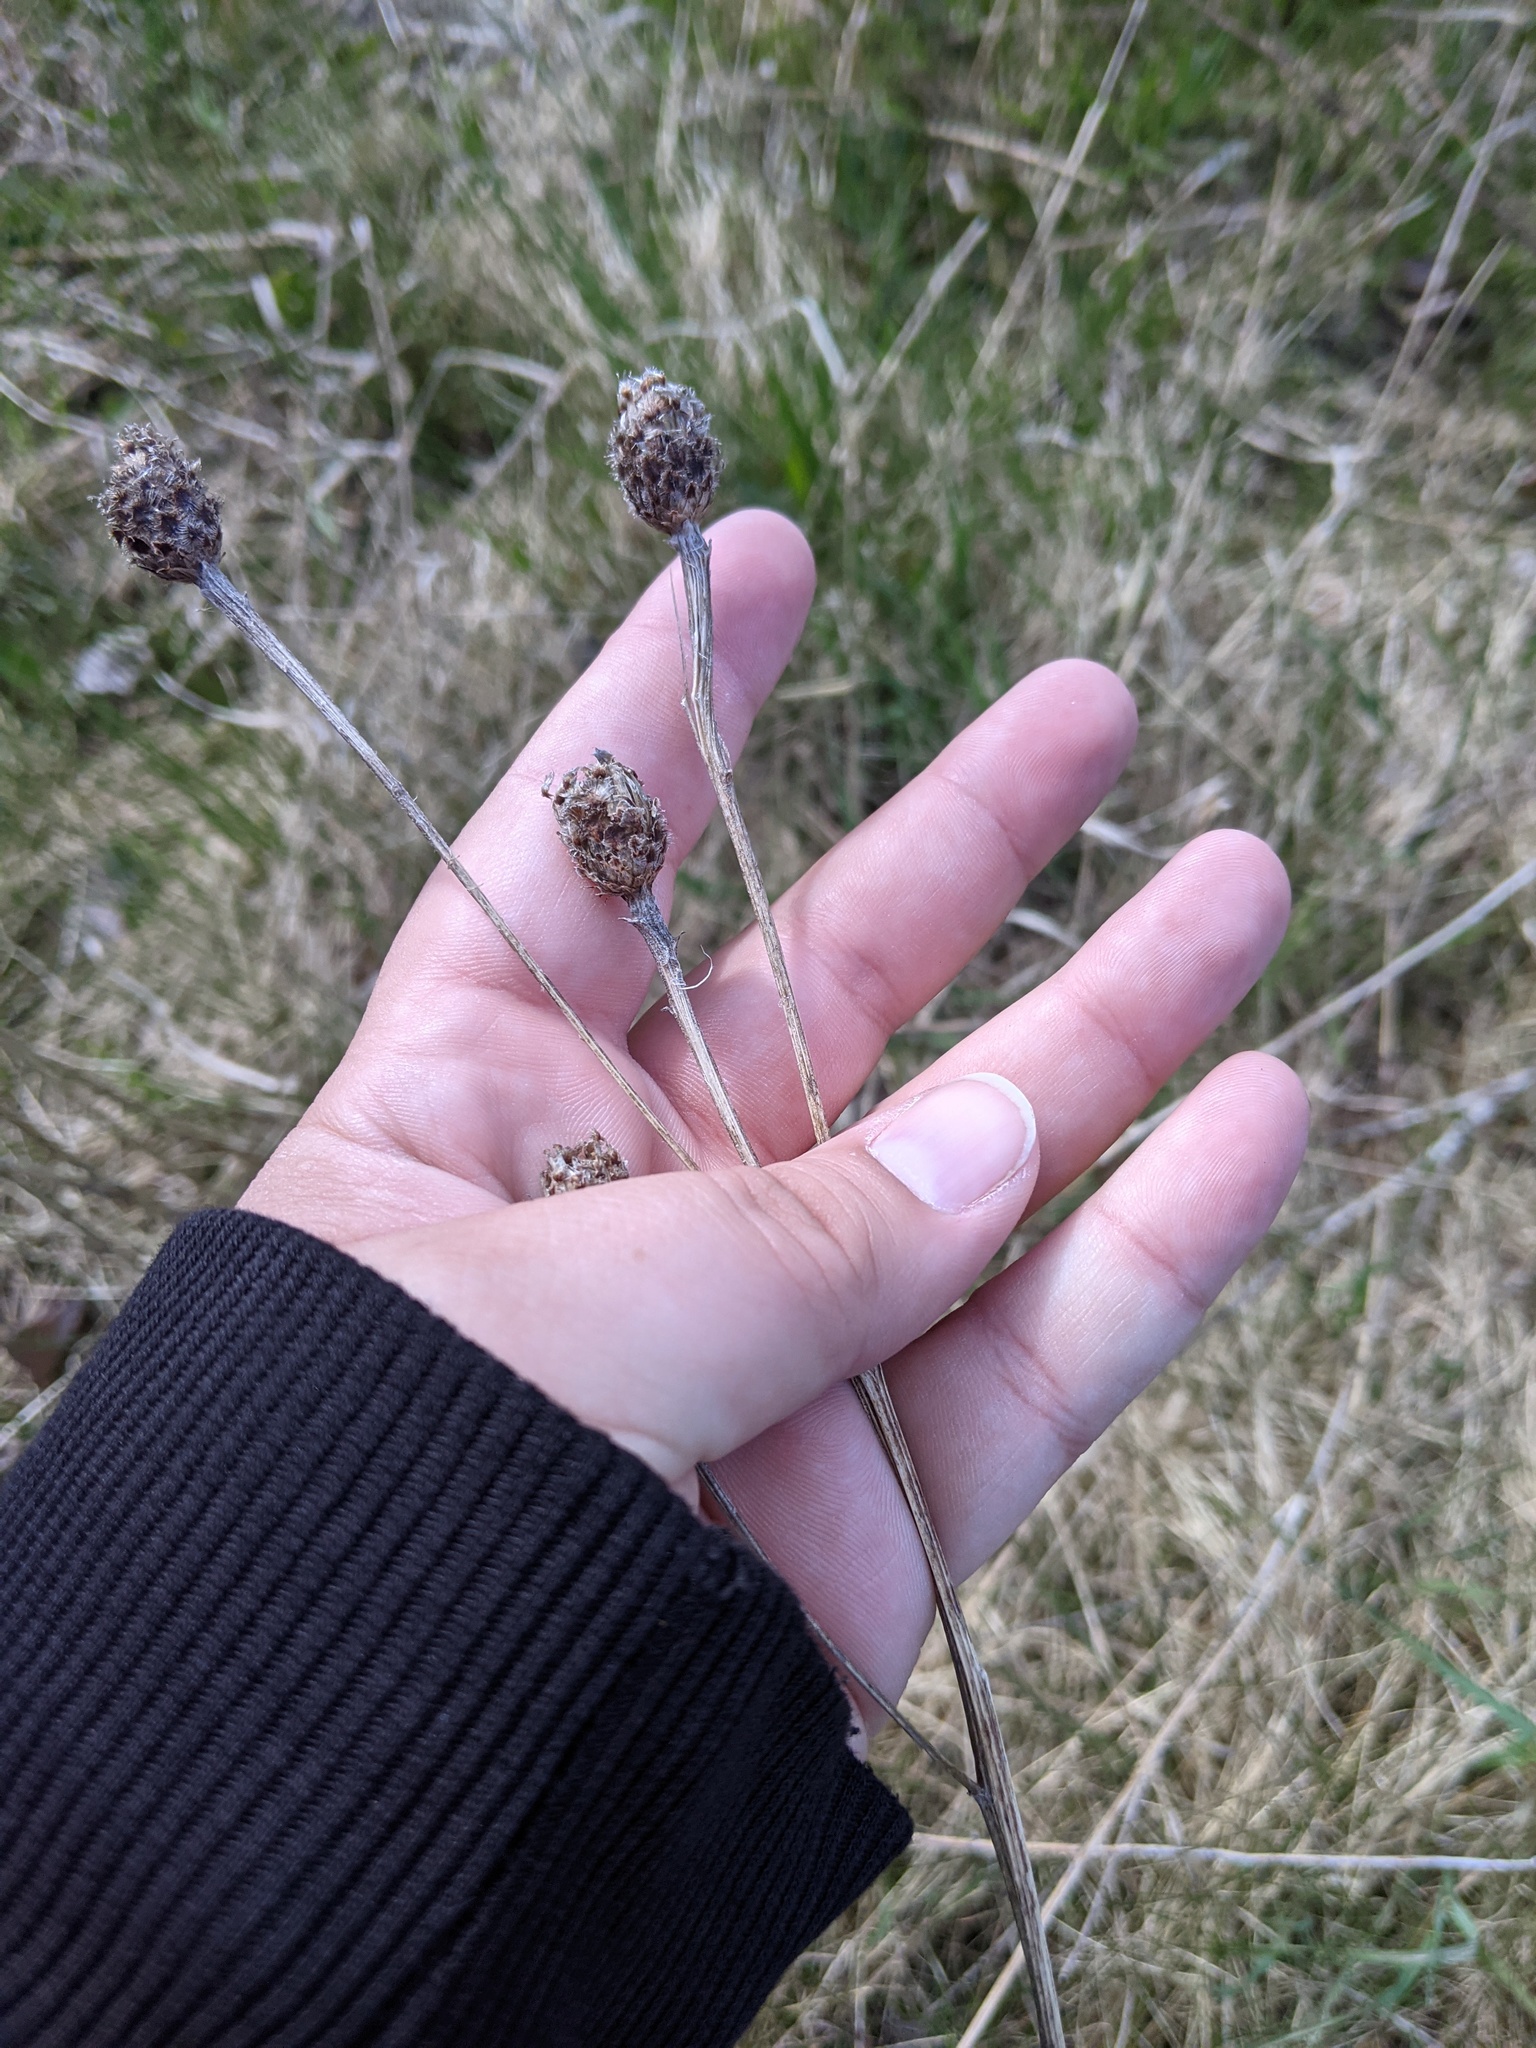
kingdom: Plantae
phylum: Tracheophyta
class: Magnoliopsida
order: Asterales
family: Asteraceae
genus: Centaurea
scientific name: Centaurea nigra
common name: Lesser knapweed
